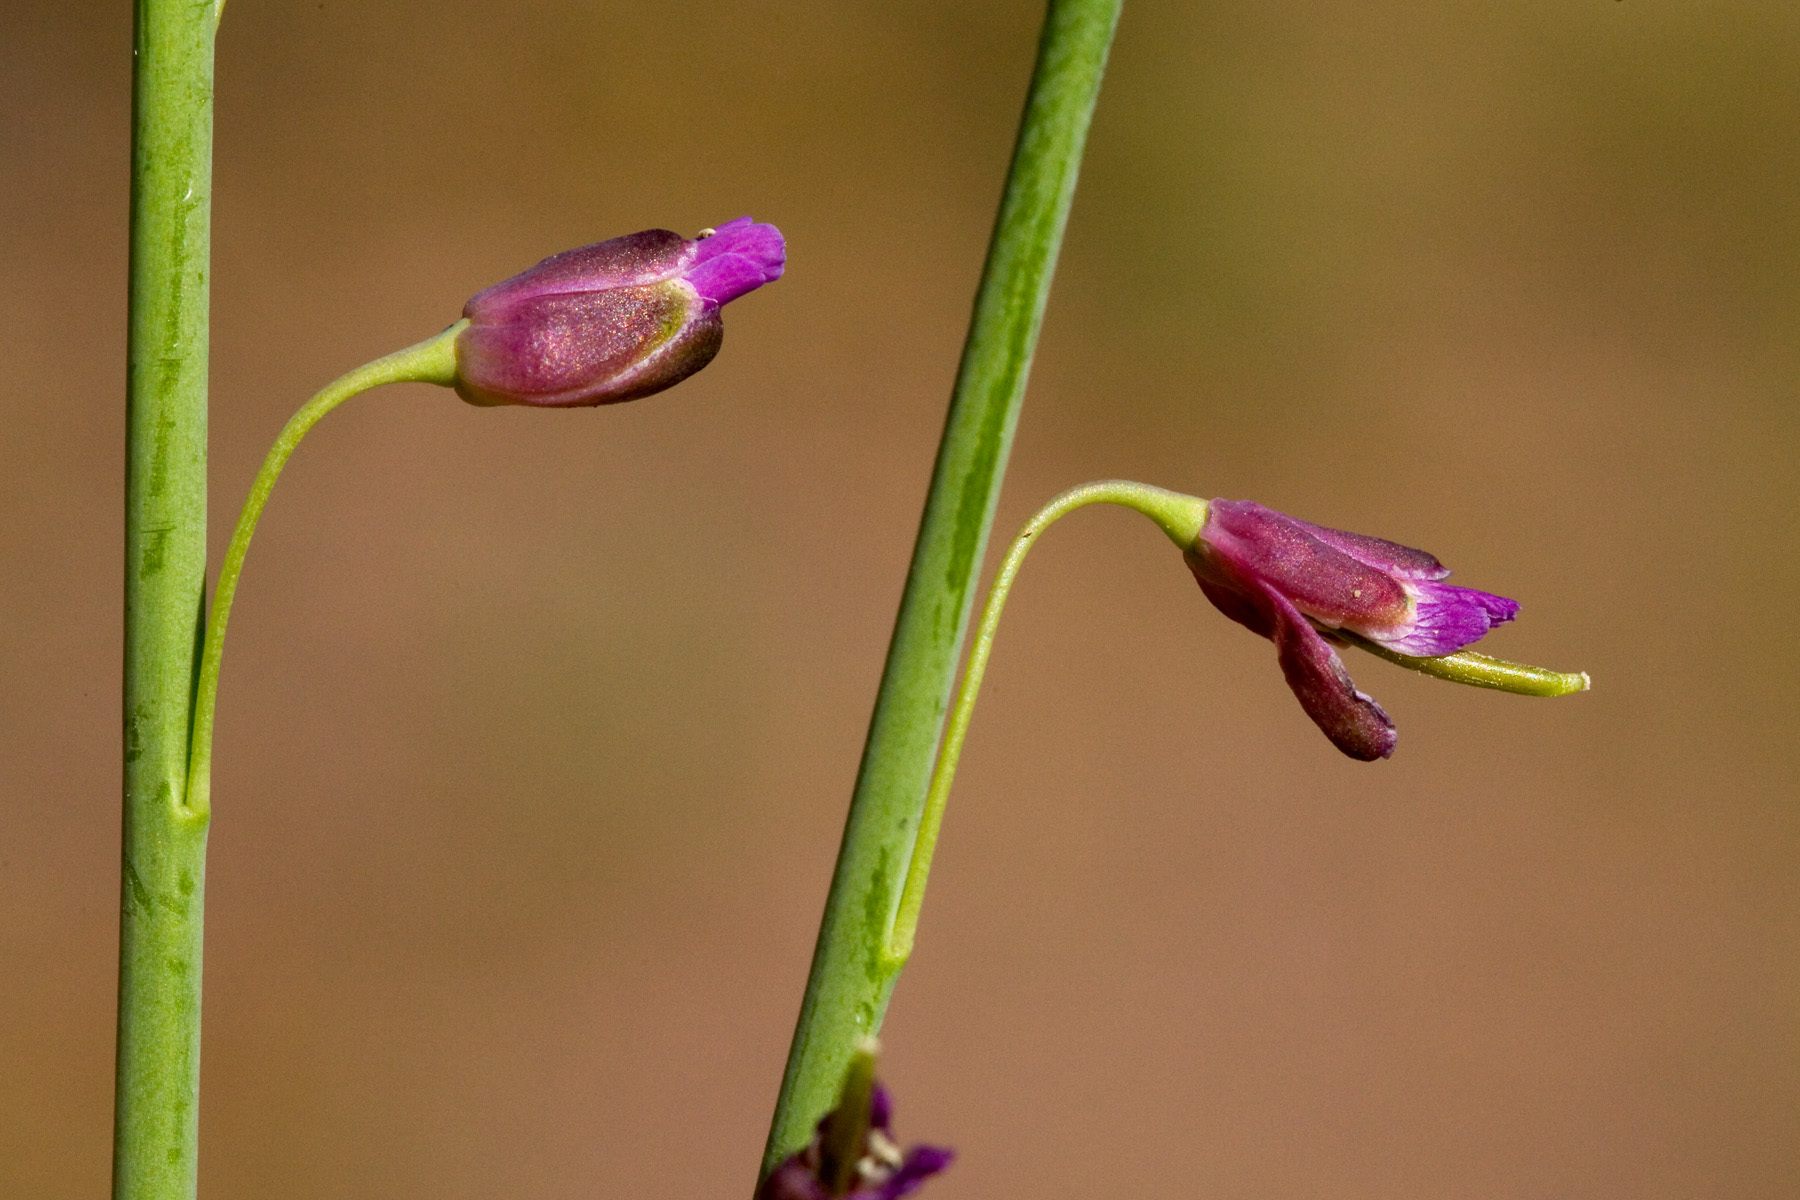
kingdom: Plantae
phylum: Tracheophyta
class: Magnoliopsida
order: Brassicales
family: Brassicaceae
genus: Pennellia
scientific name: Pennellia longifolia
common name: Longleaf mock thelypody
